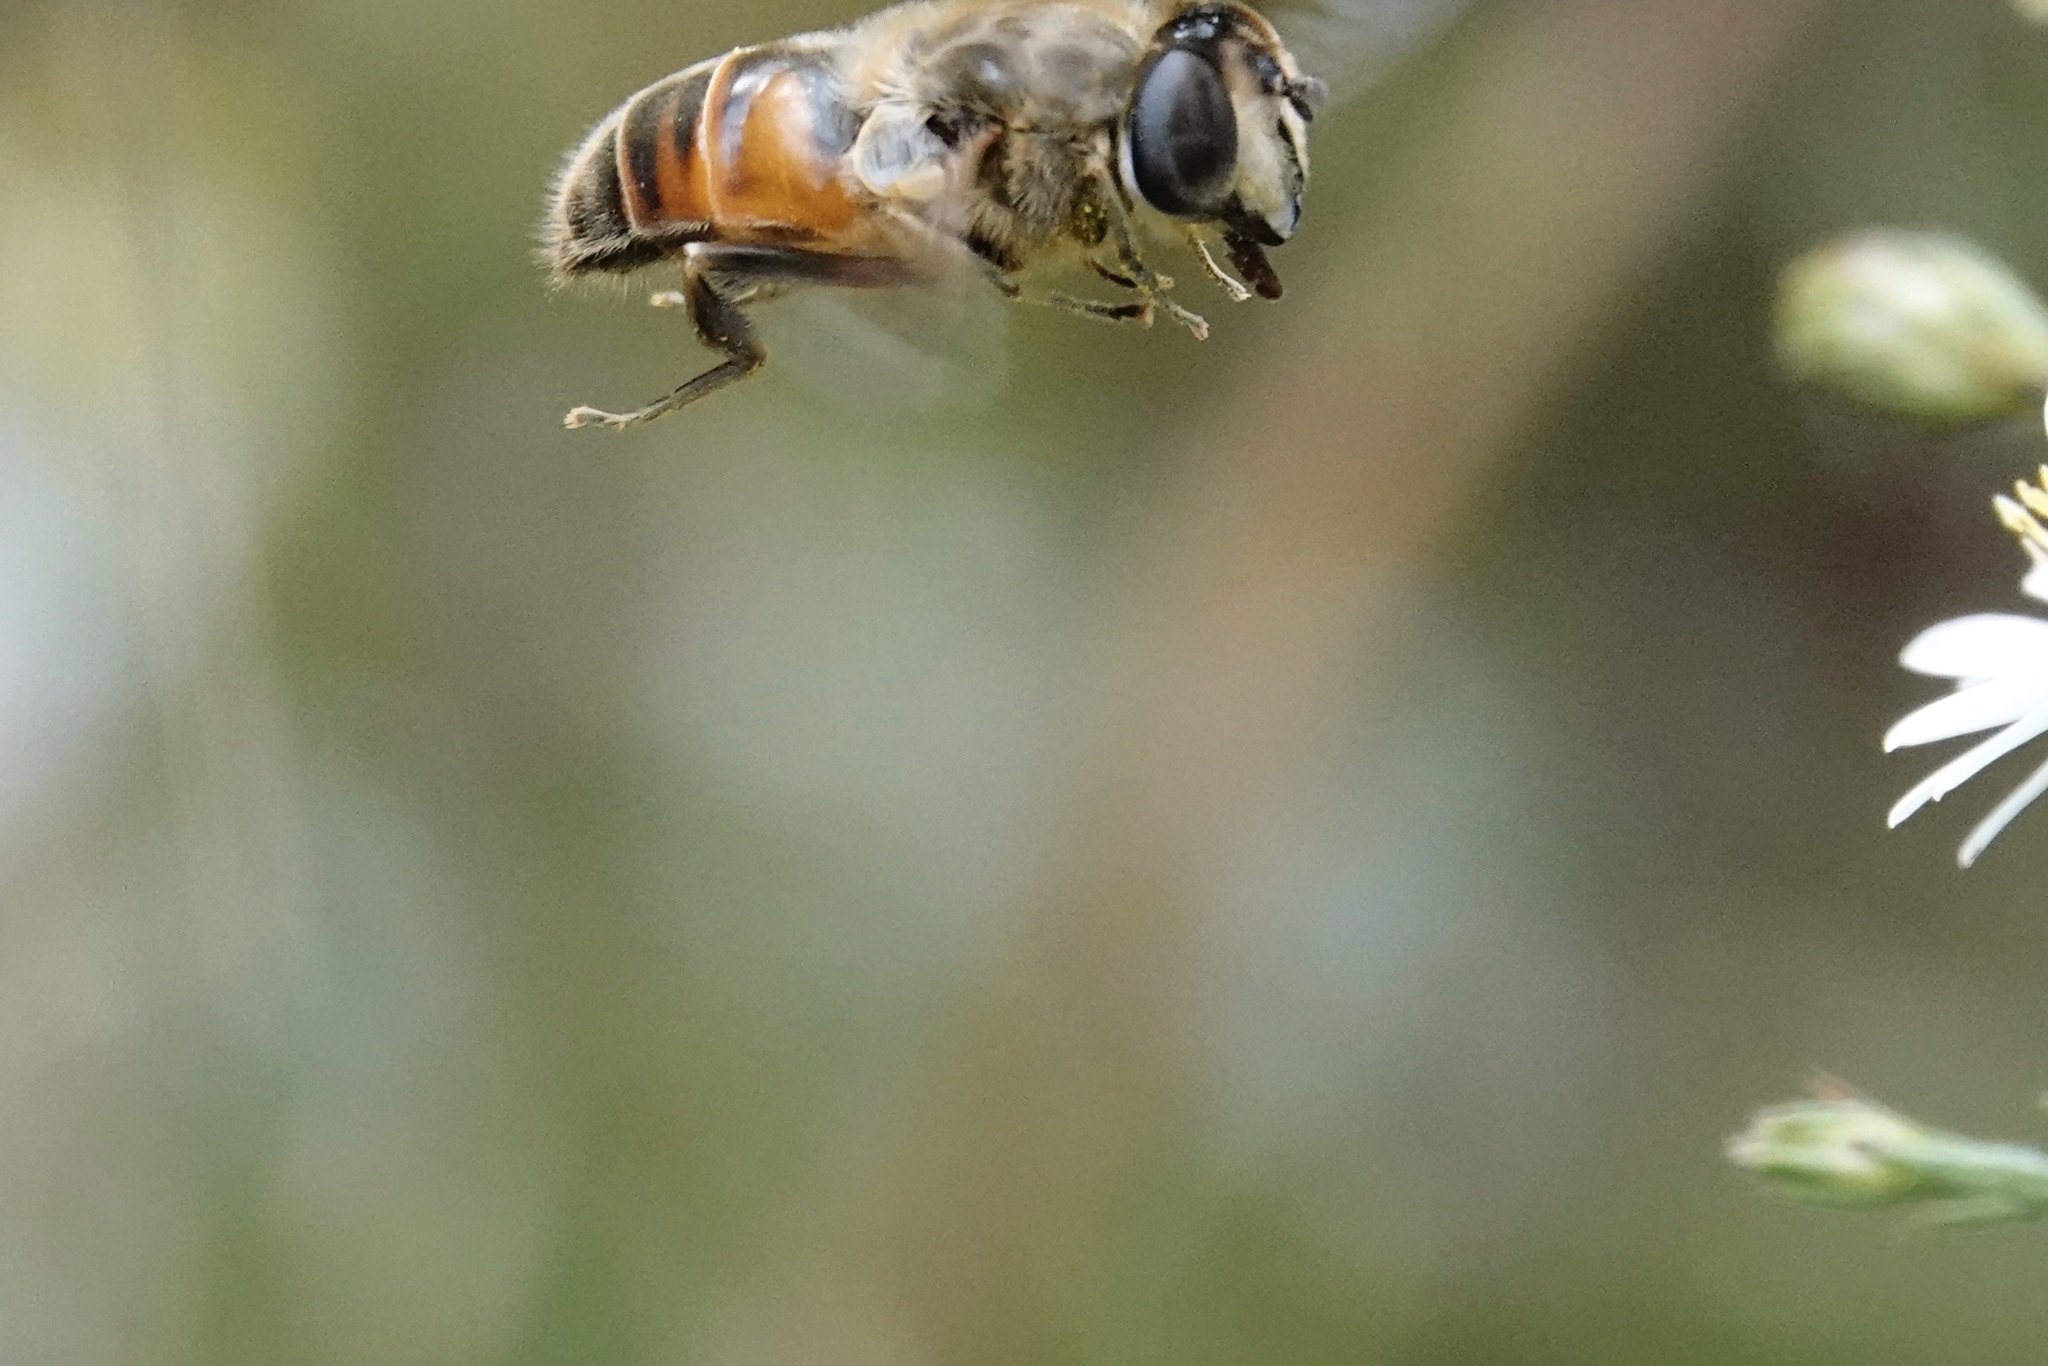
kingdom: Animalia
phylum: Arthropoda
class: Insecta
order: Diptera
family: Syrphidae
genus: Eristalis
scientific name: Eristalis tenax
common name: Drone fly
